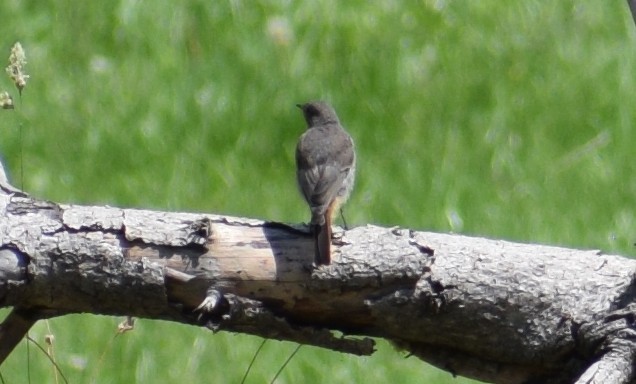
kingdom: Animalia
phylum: Chordata
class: Aves
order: Passeriformes
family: Muscicapidae
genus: Phoenicurus
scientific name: Phoenicurus ochruros
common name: Black redstart
